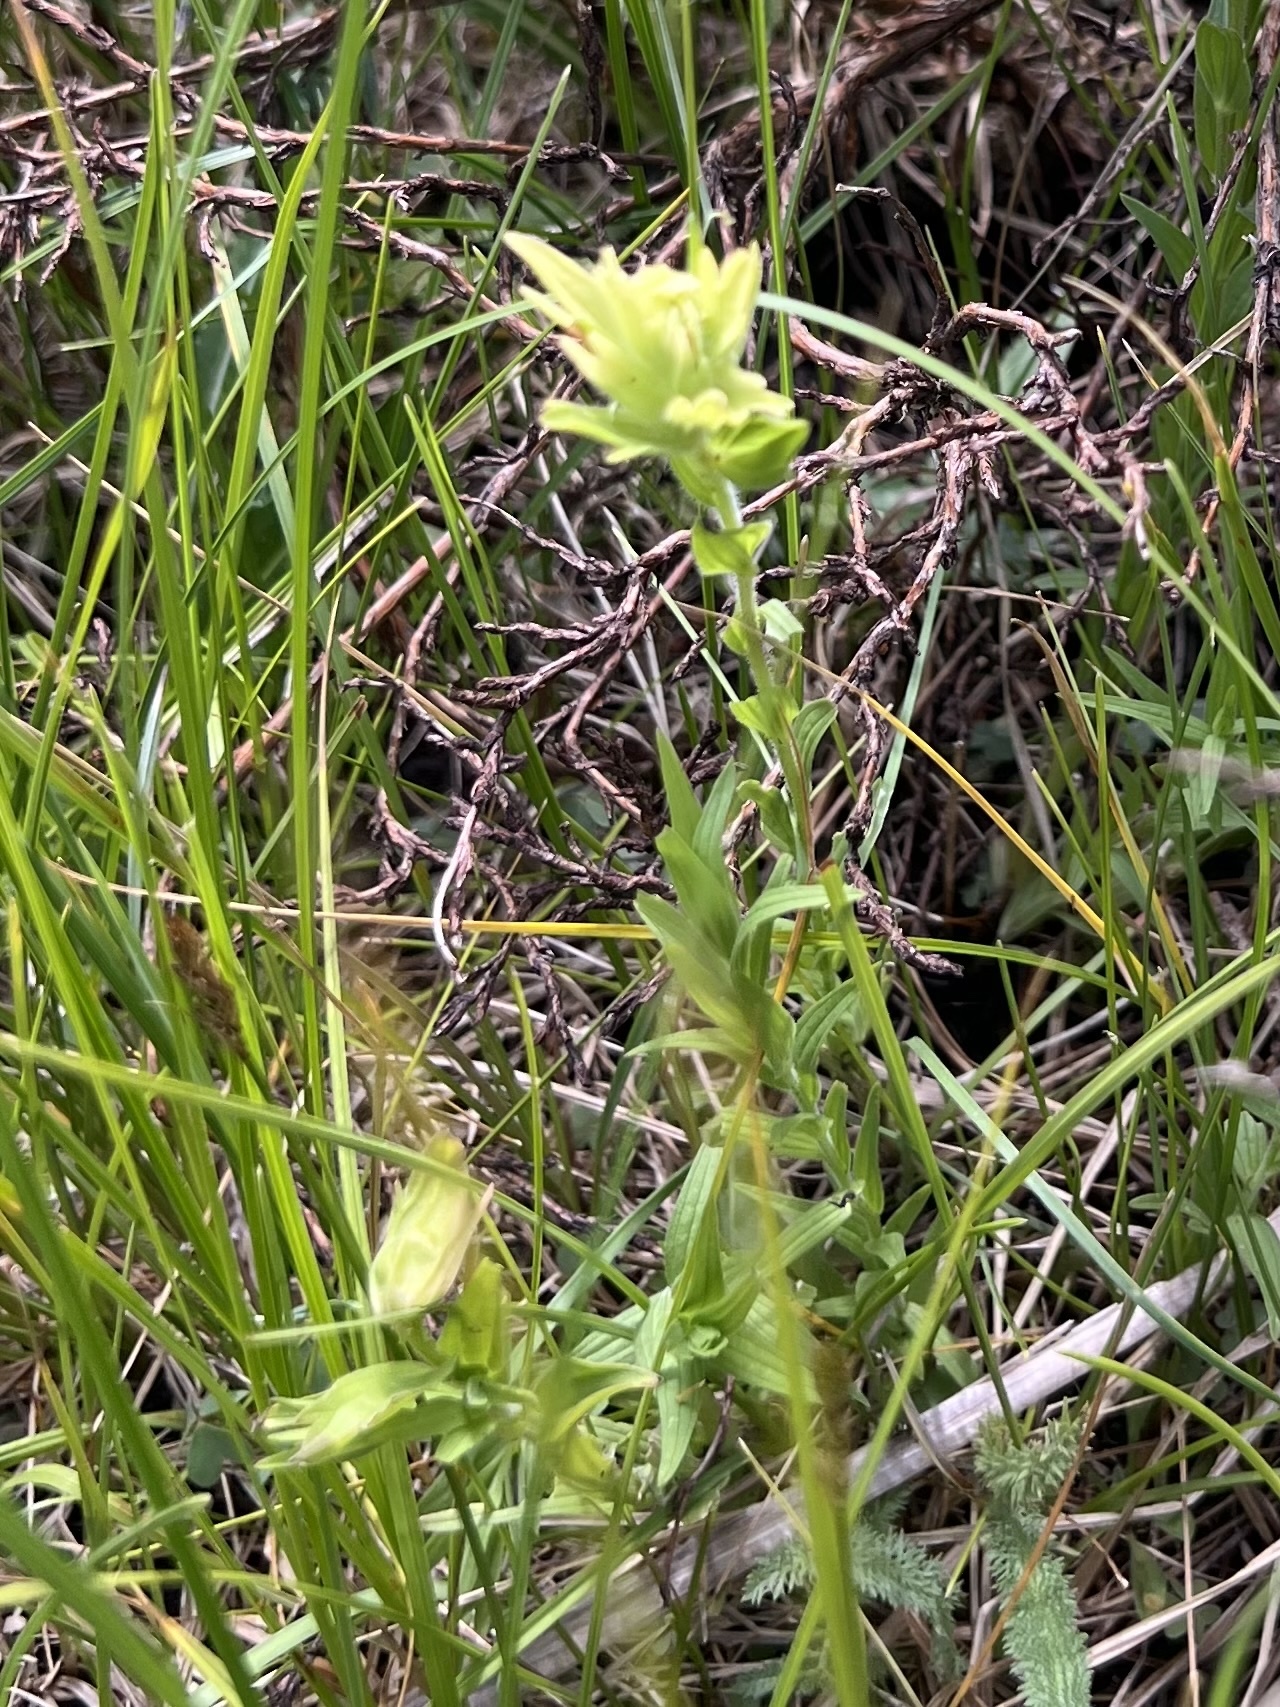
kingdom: Plantae
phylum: Tracheophyta
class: Magnoliopsida
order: Lamiales
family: Orobanchaceae
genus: Castilleja
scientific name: Castilleja mogollonica
